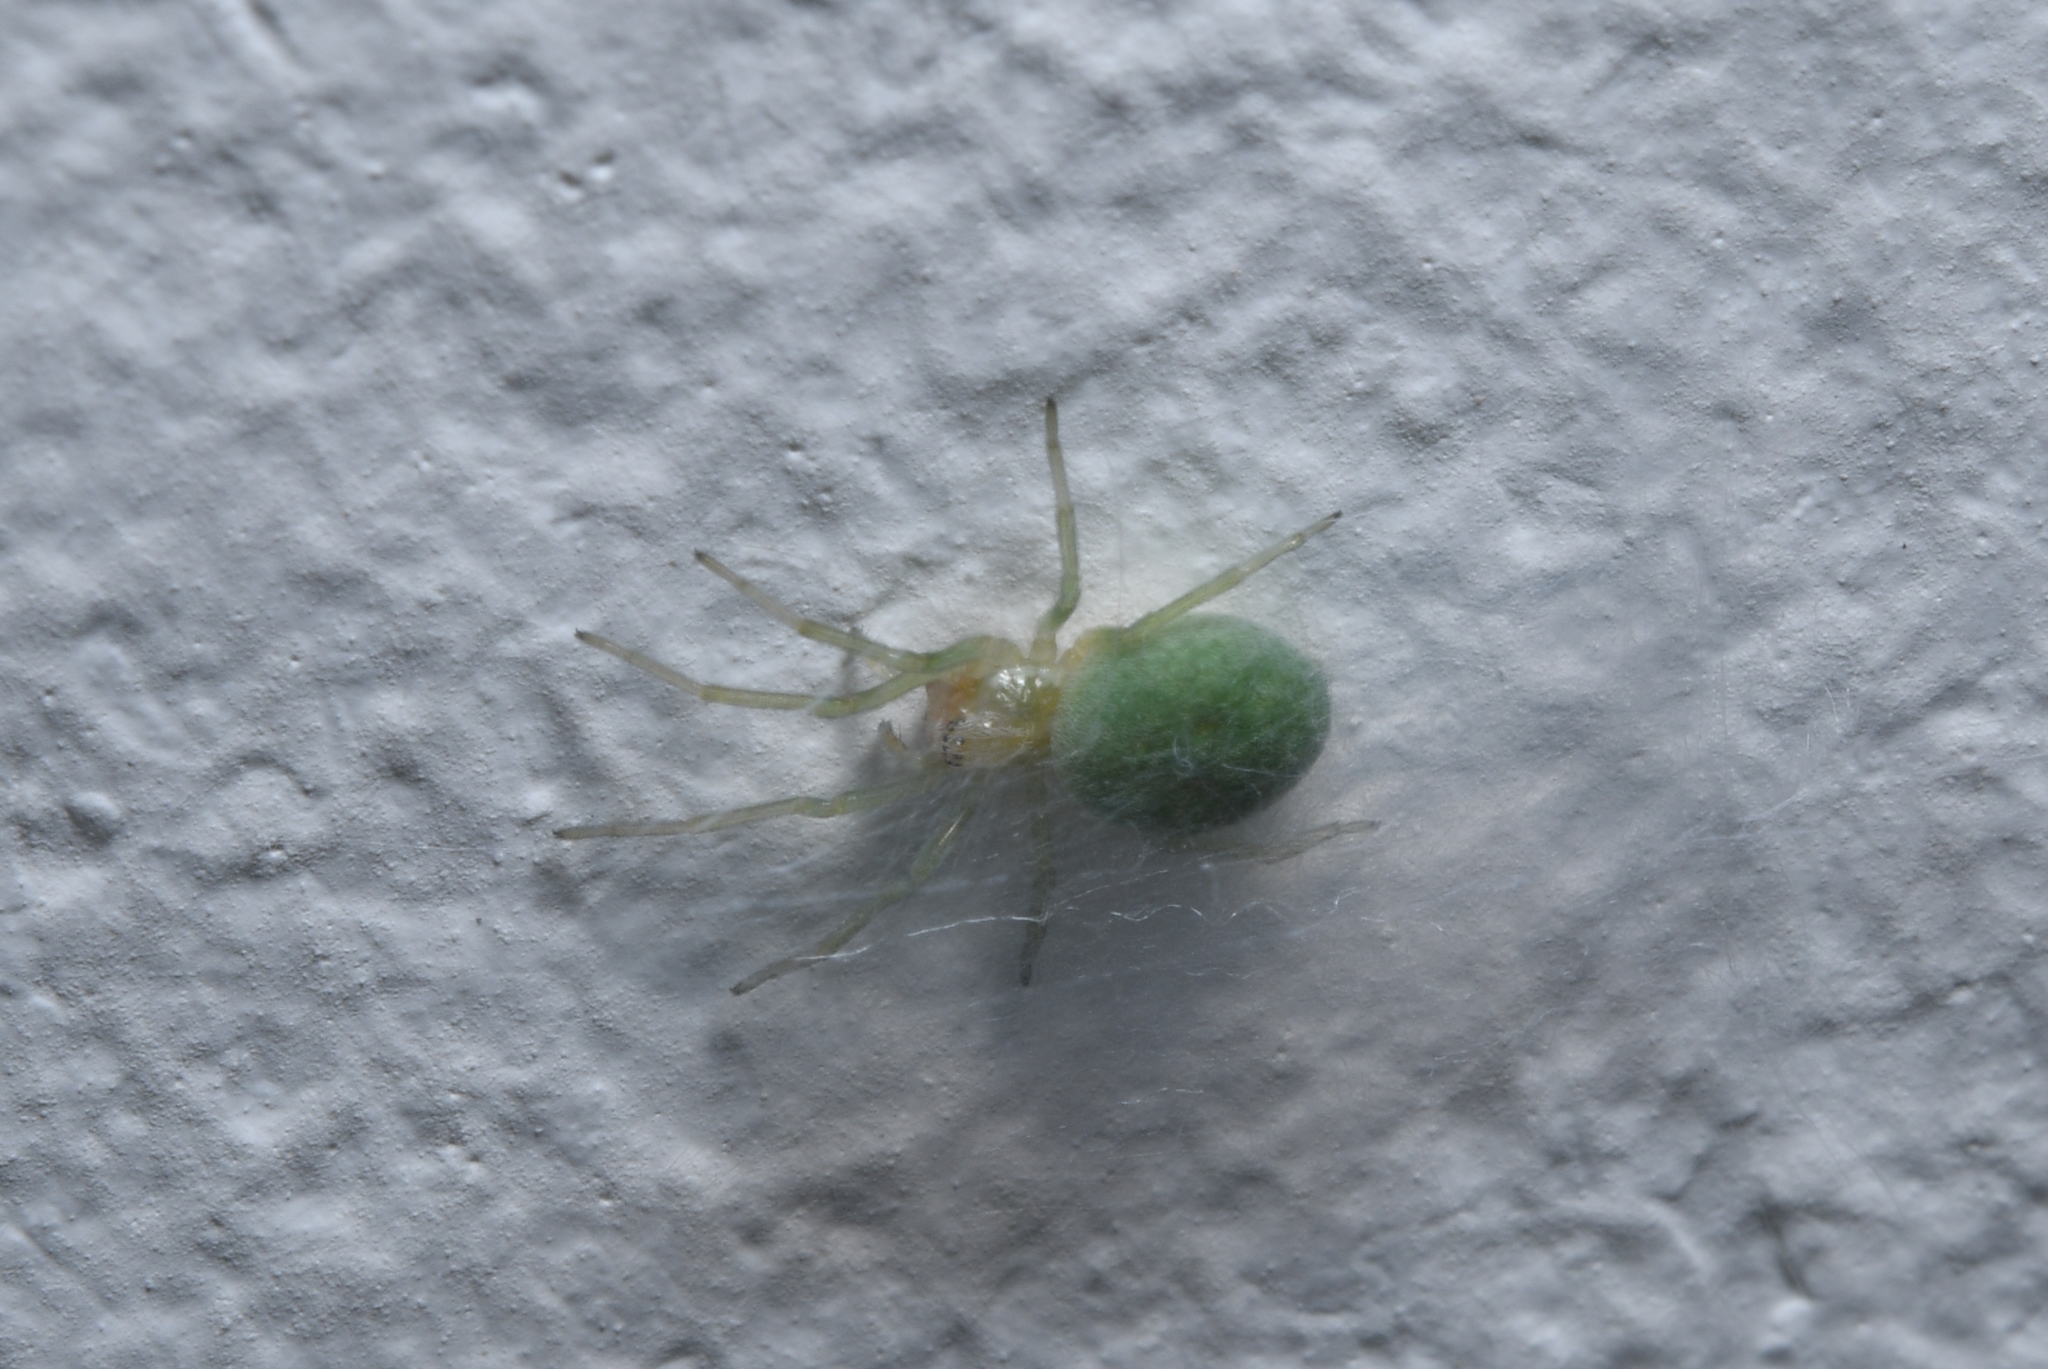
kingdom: Animalia
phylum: Arthropoda
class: Arachnida
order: Araneae
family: Dictynidae
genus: Nigma
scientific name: Nigma walckenaeri
